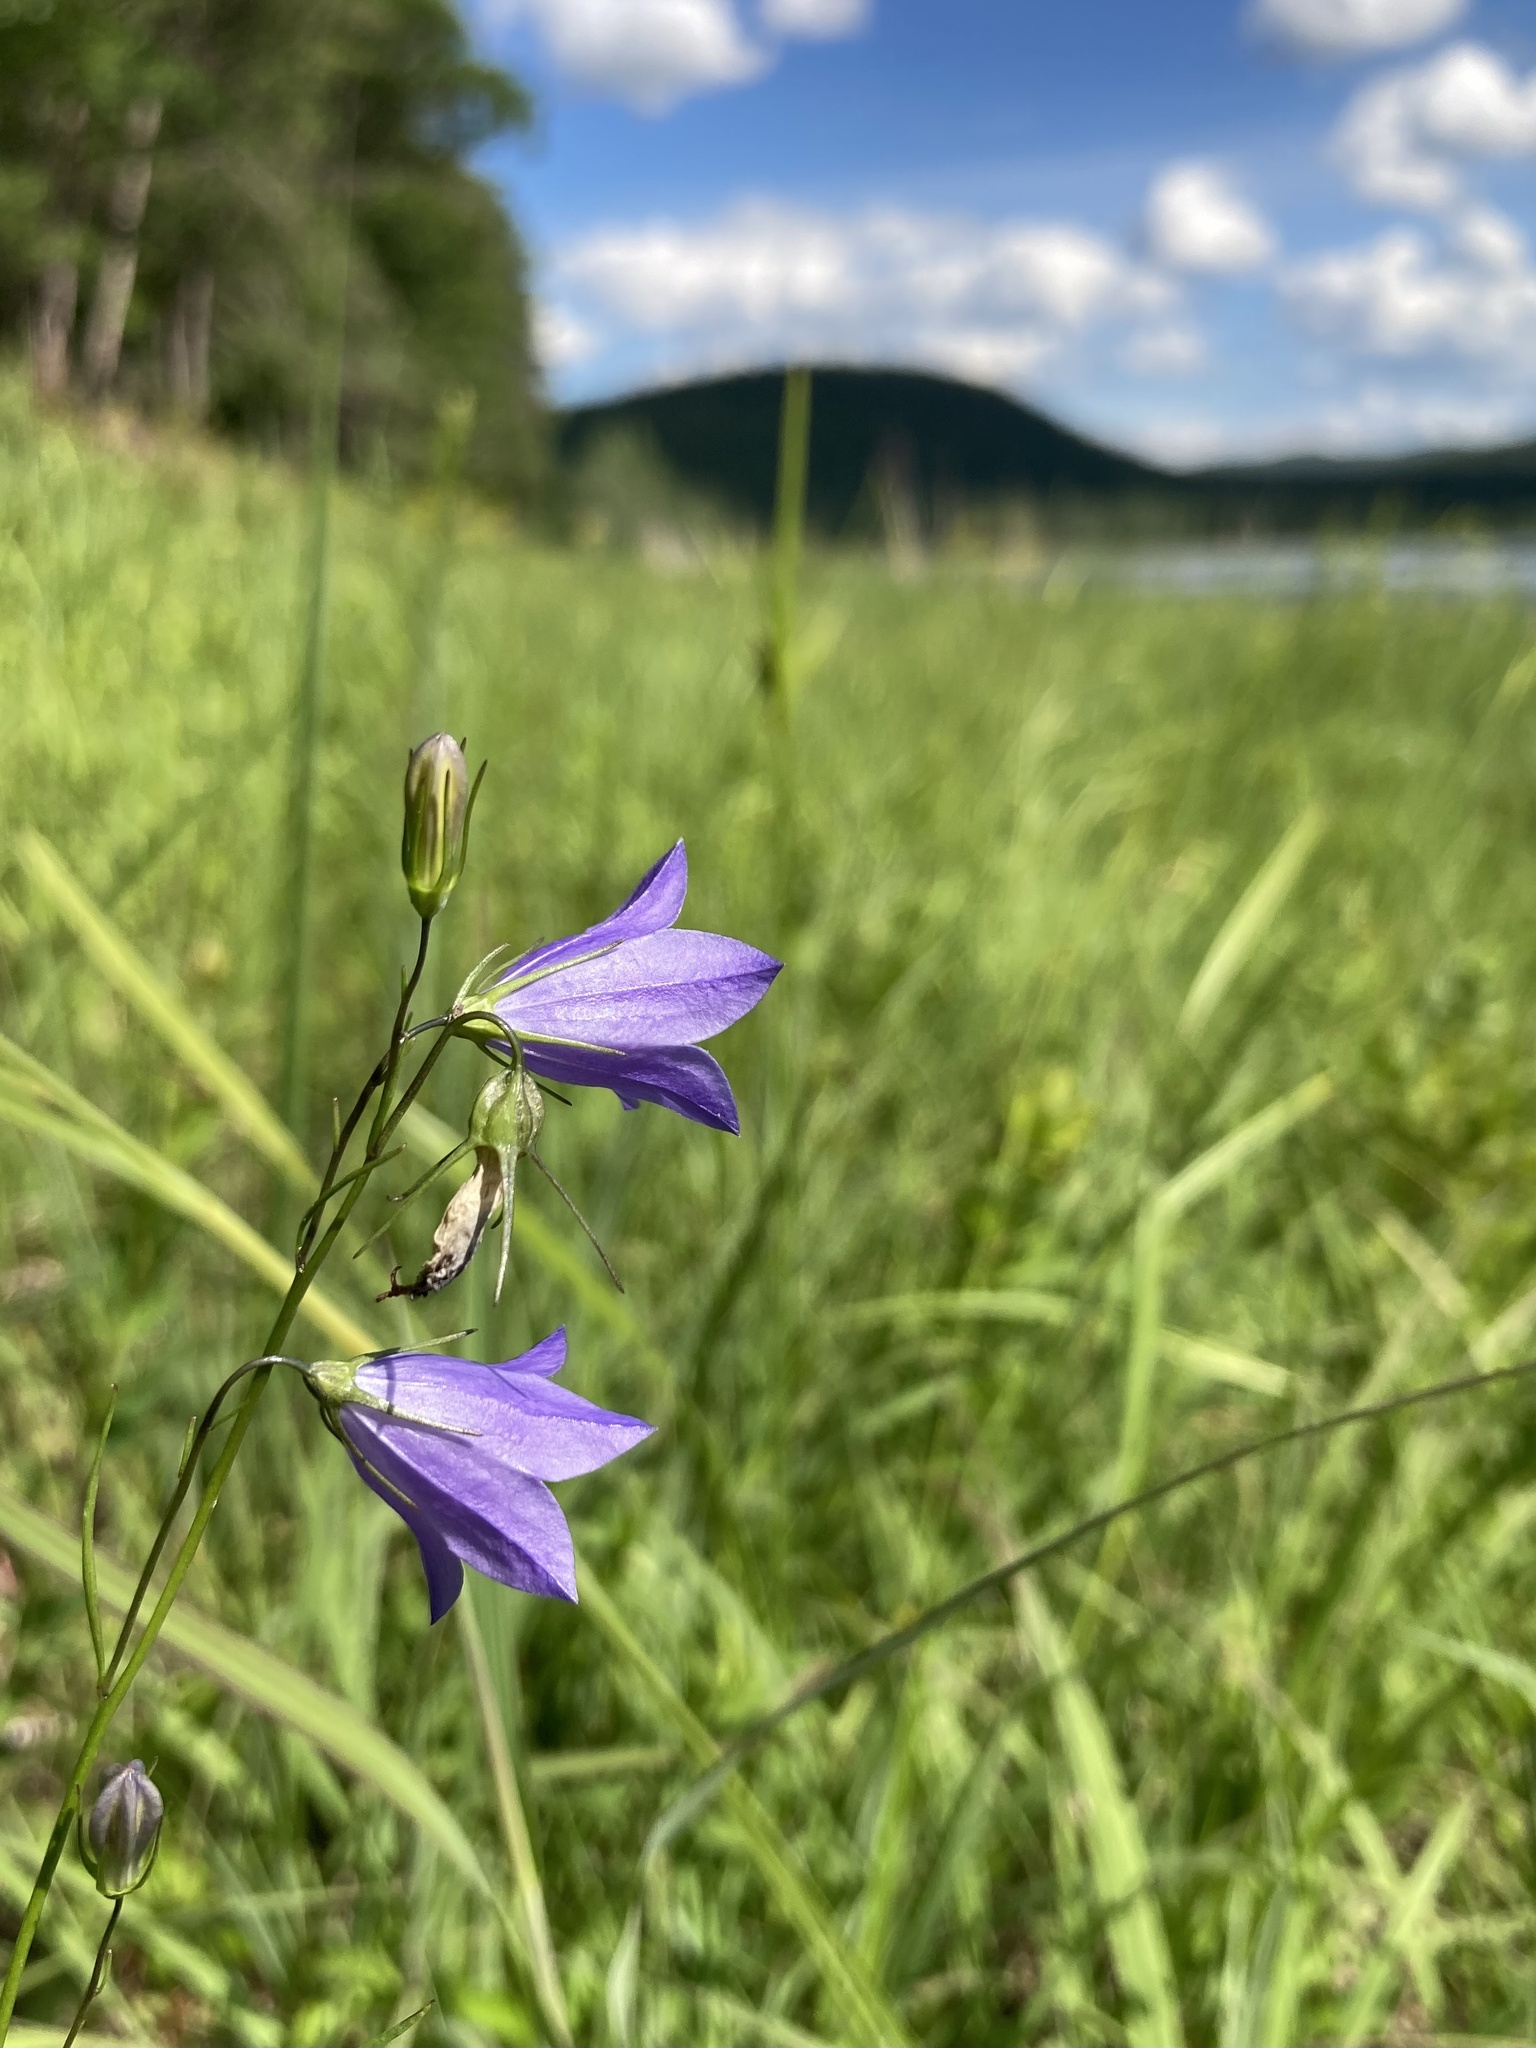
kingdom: Plantae
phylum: Tracheophyta
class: Magnoliopsida
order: Asterales
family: Campanulaceae
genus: Campanula
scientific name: Campanula intercedens
